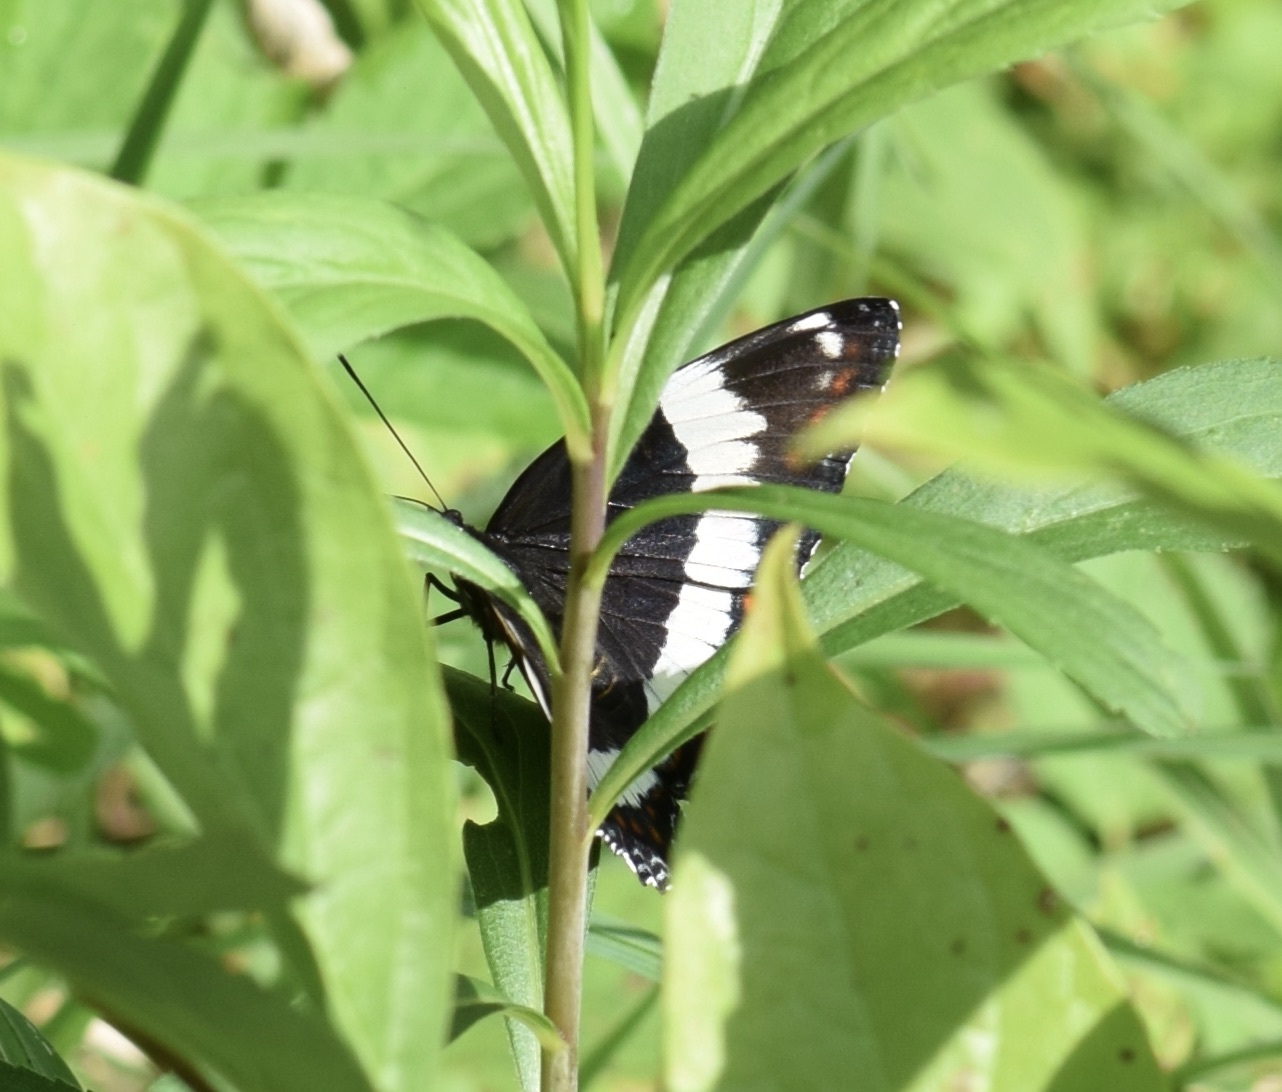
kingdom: Animalia
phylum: Arthropoda
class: Insecta
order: Lepidoptera
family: Nymphalidae
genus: Limenitis
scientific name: Limenitis arthemis
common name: Red-spotted admiral
